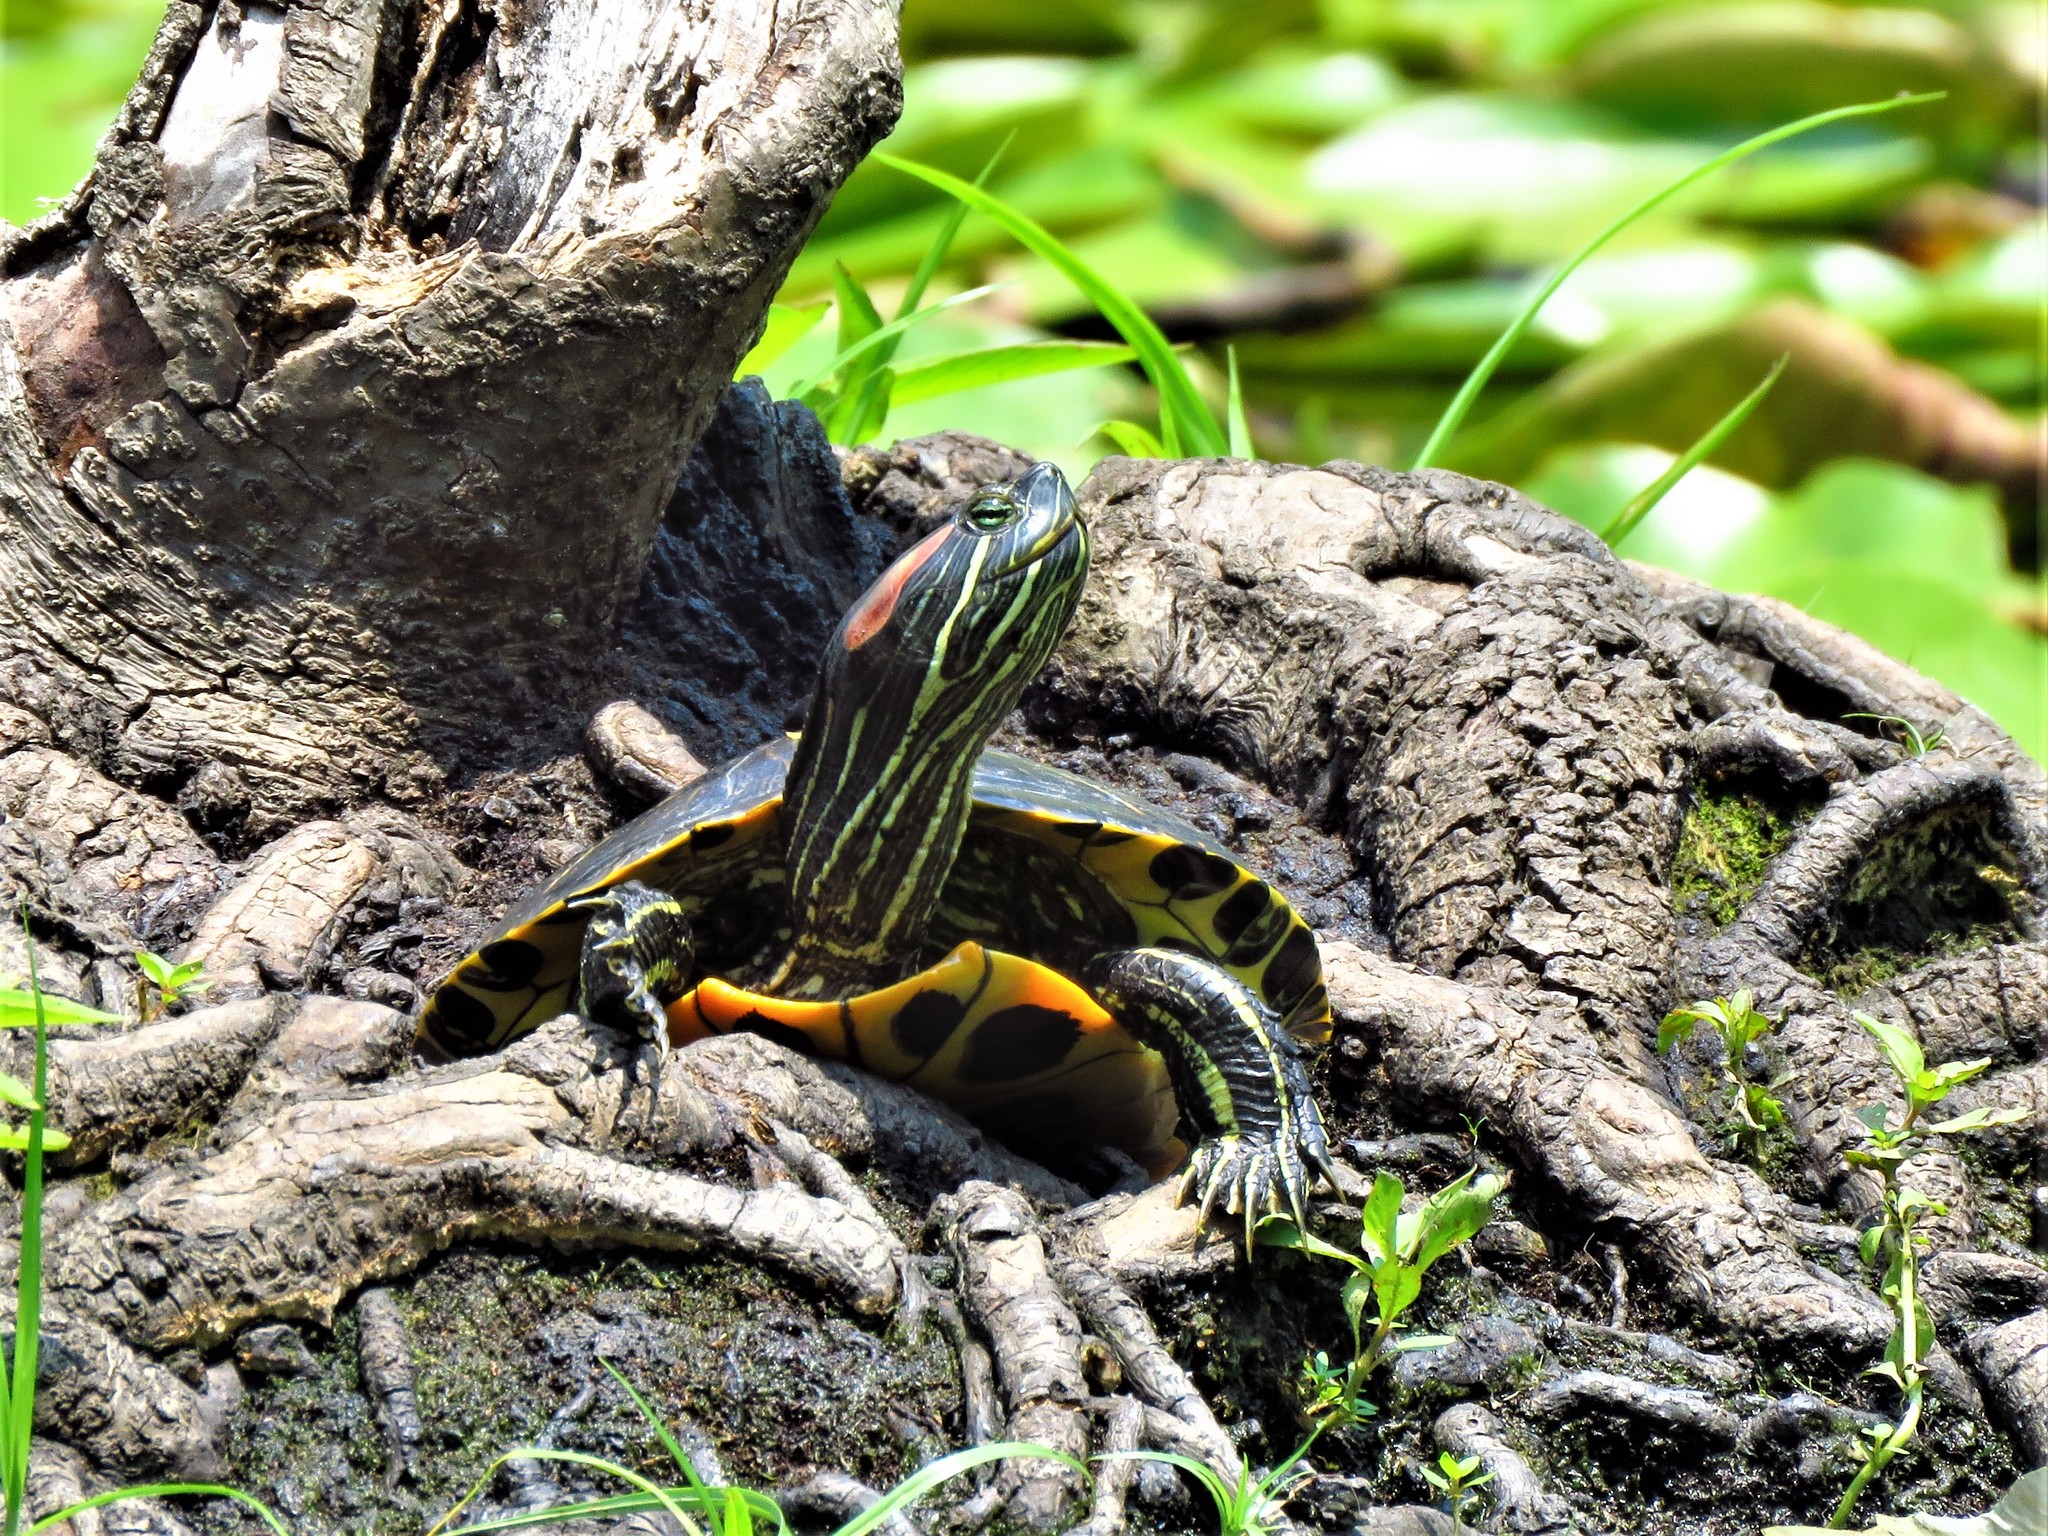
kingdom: Animalia
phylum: Chordata
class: Testudines
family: Emydidae
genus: Trachemys
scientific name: Trachemys scripta
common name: Slider
